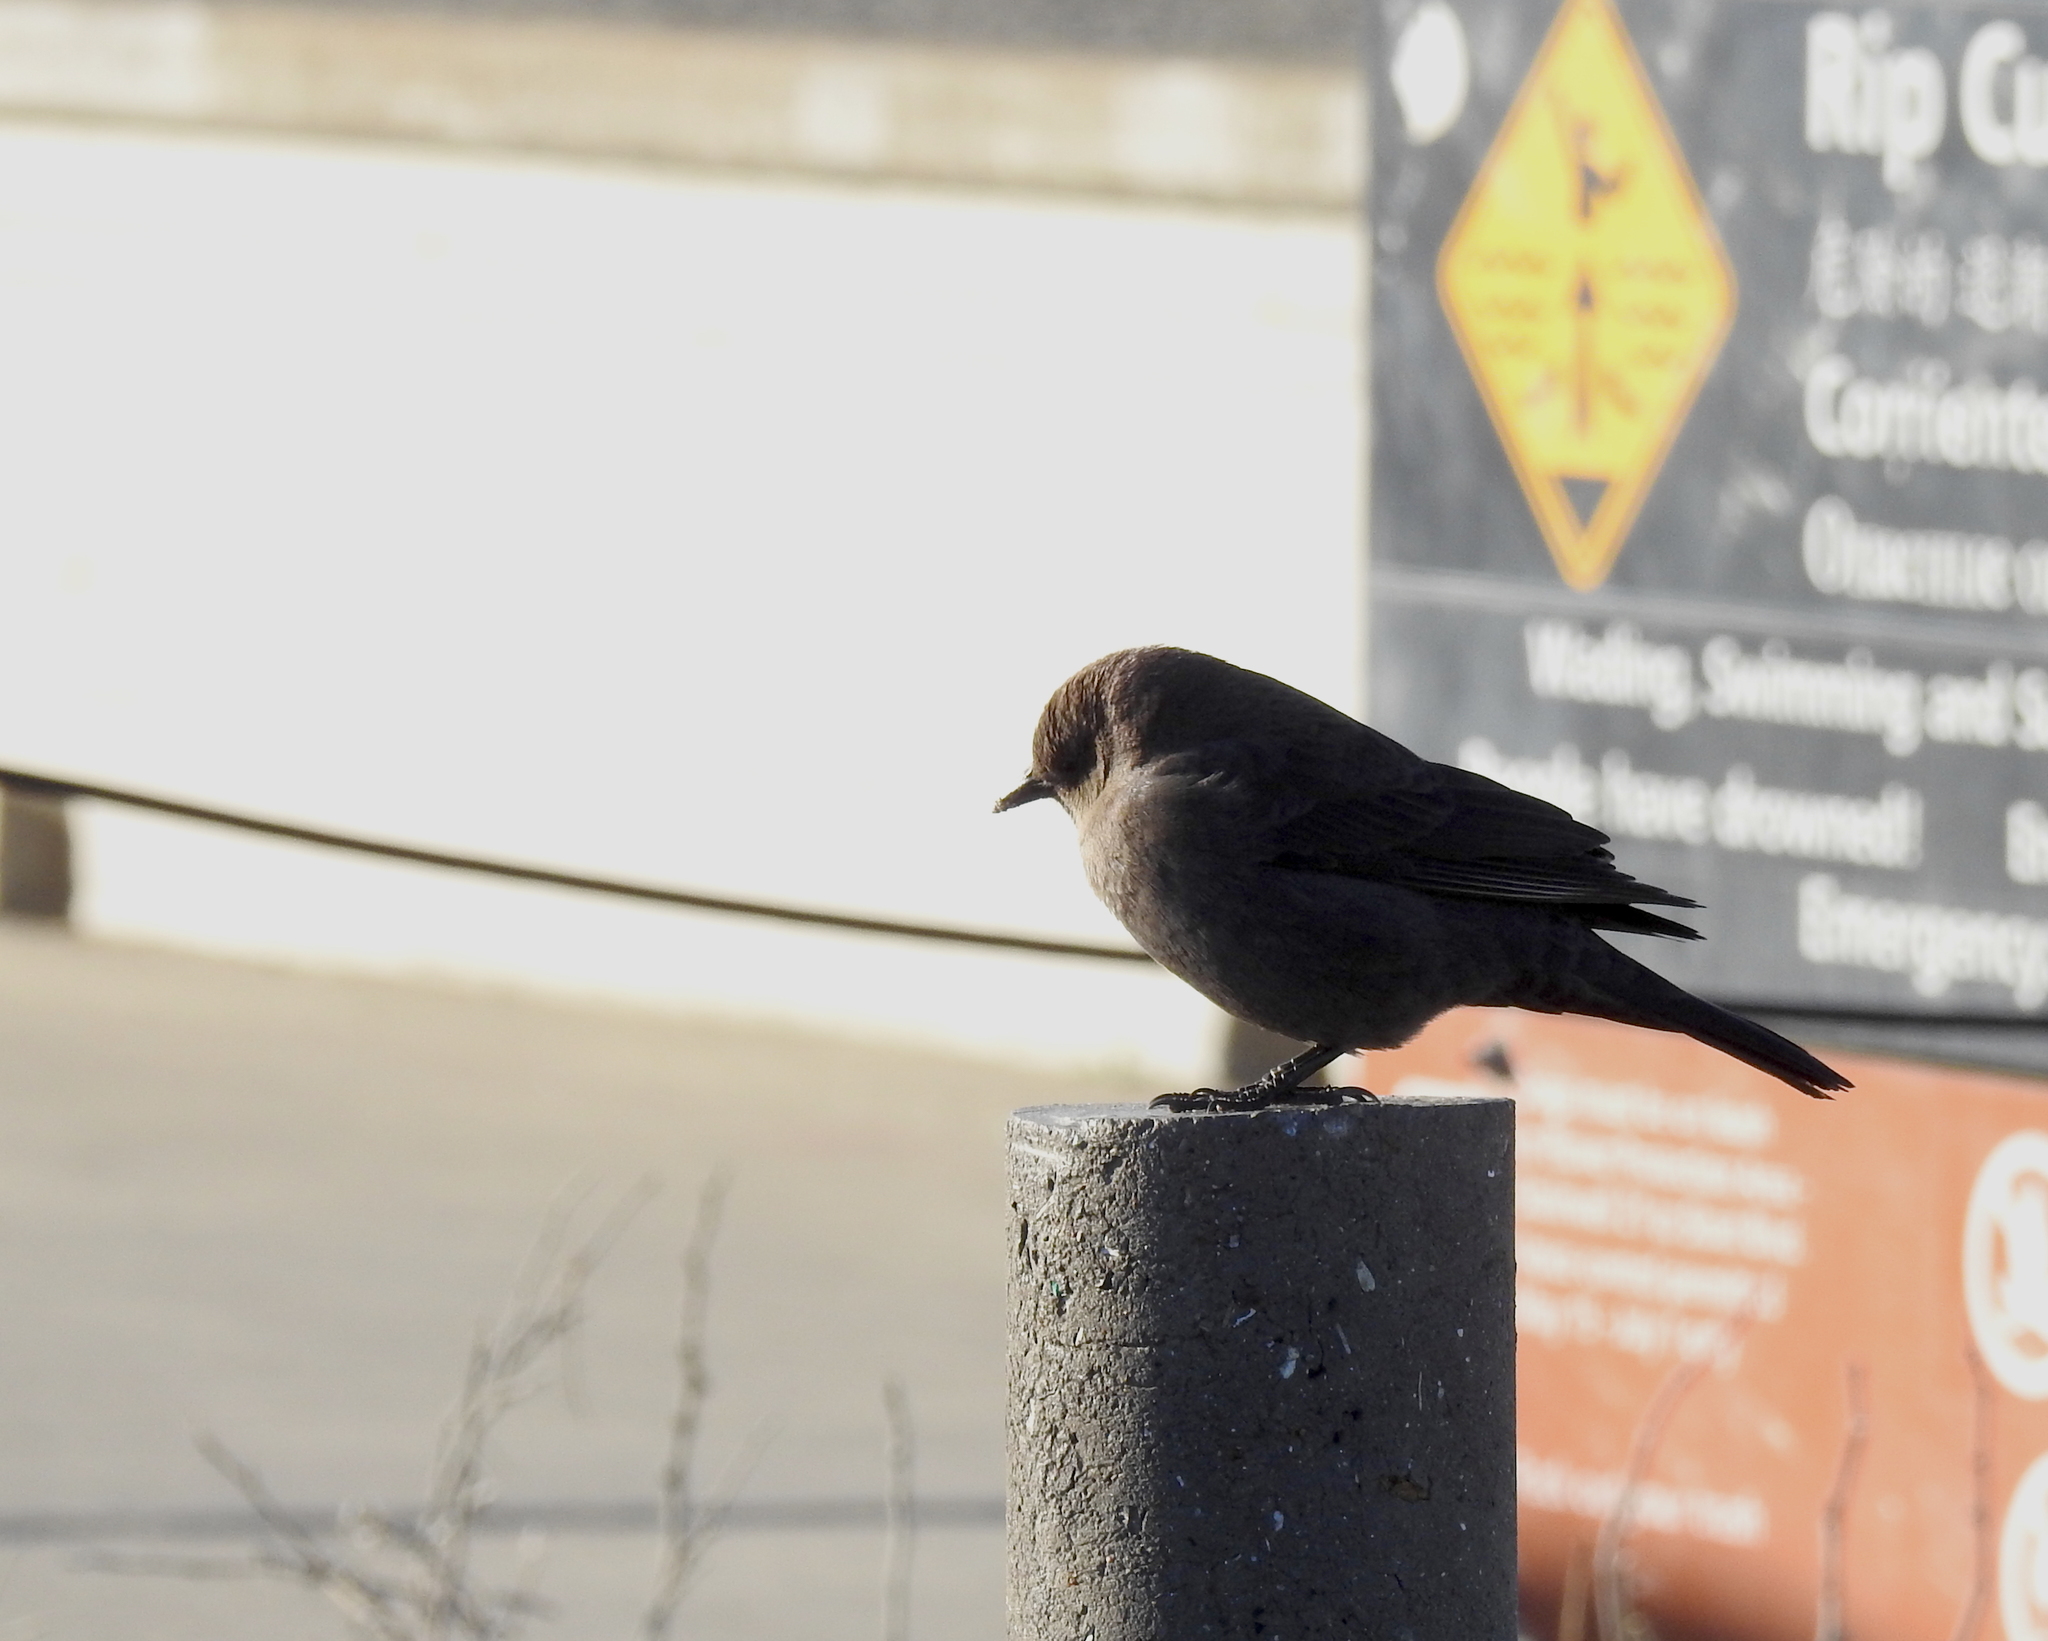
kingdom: Animalia
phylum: Chordata
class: Aves
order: Passeriformes
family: Icteridae
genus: Euphagus
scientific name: Euphagus cyanocephalus
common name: Brewer's blackbird
